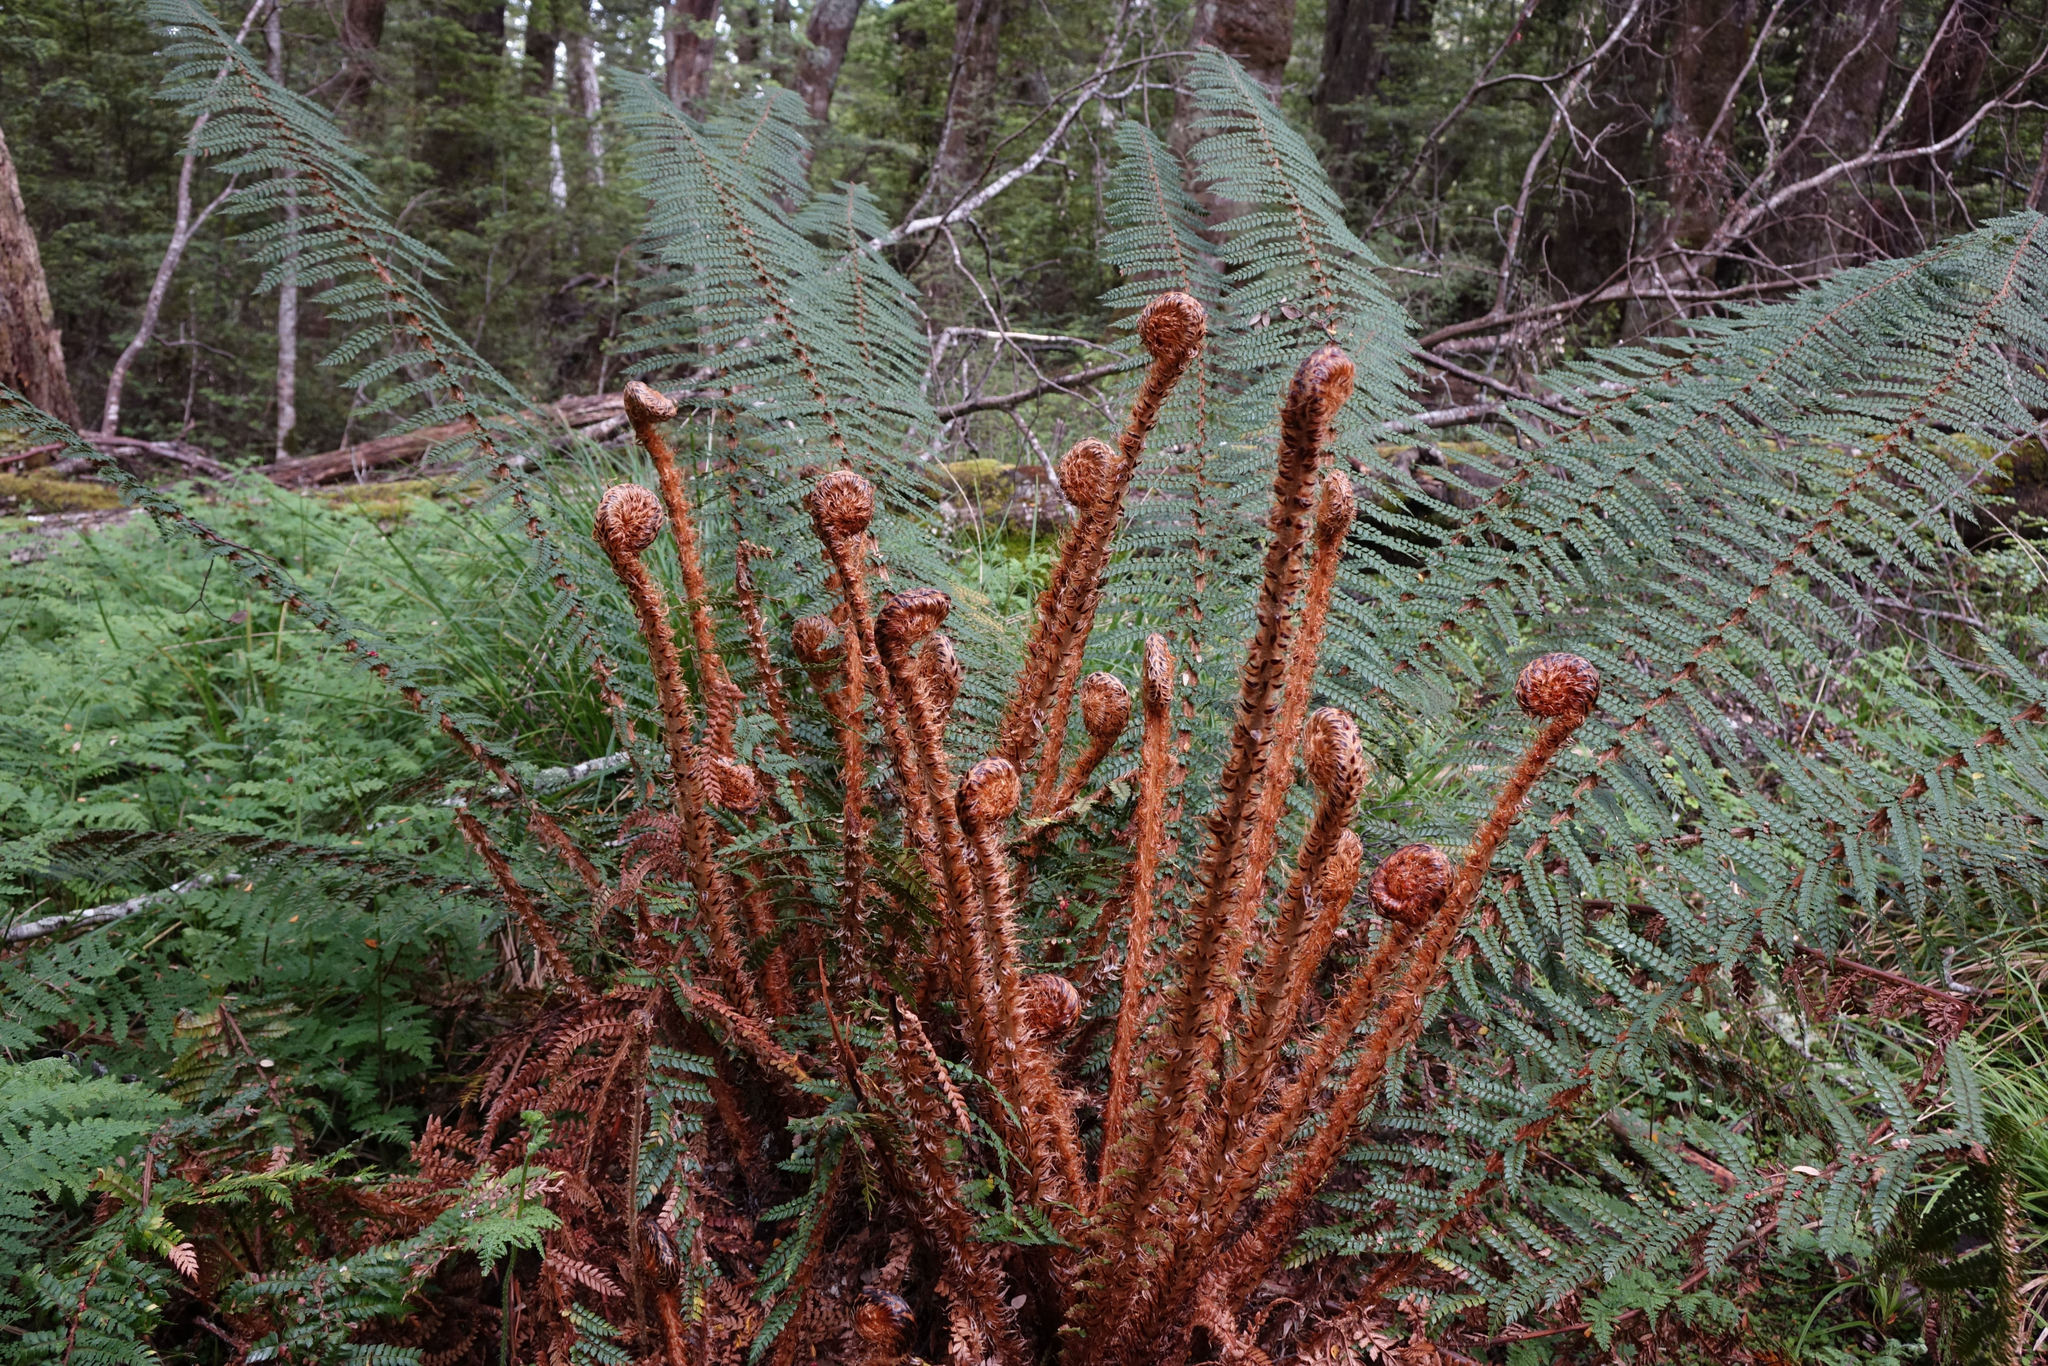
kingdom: Plantae
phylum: Tracheophyta
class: Polypodiopsida
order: Polypodiales
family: Dryopteridaceae
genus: Polystichum
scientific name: Polystichum vestitum
